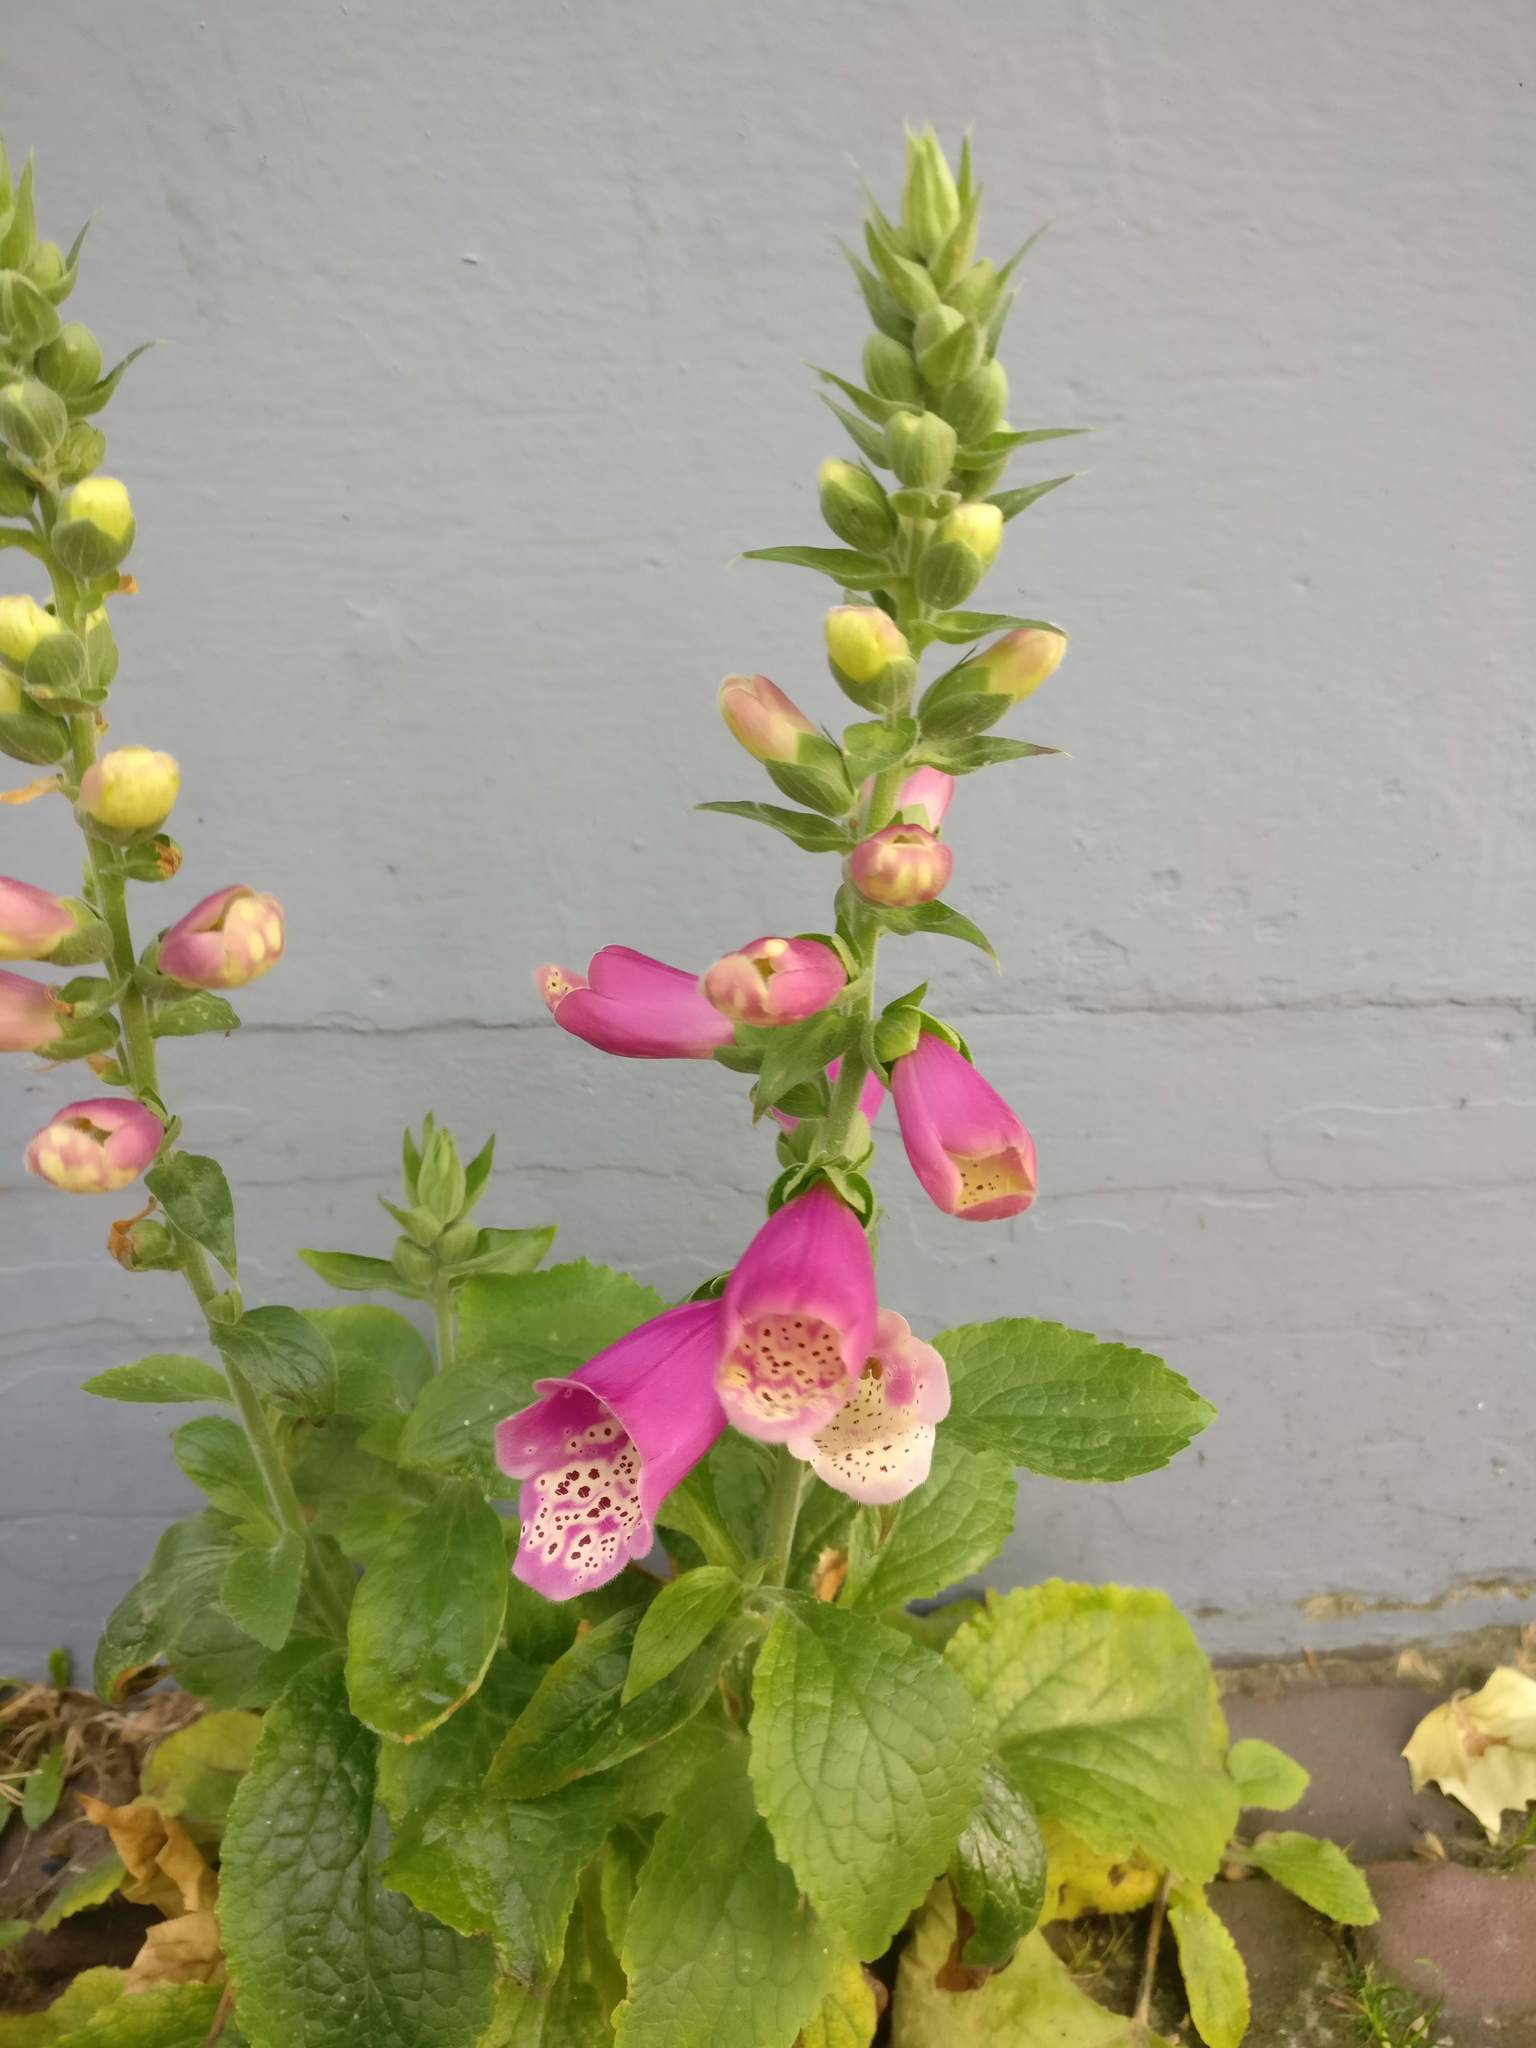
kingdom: Plantae
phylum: Tracheophyta
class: Magnoliopsida
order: Lamiales
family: Plantaginaceae
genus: Digitalis
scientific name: Digitalis purpurea
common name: Foxglove
